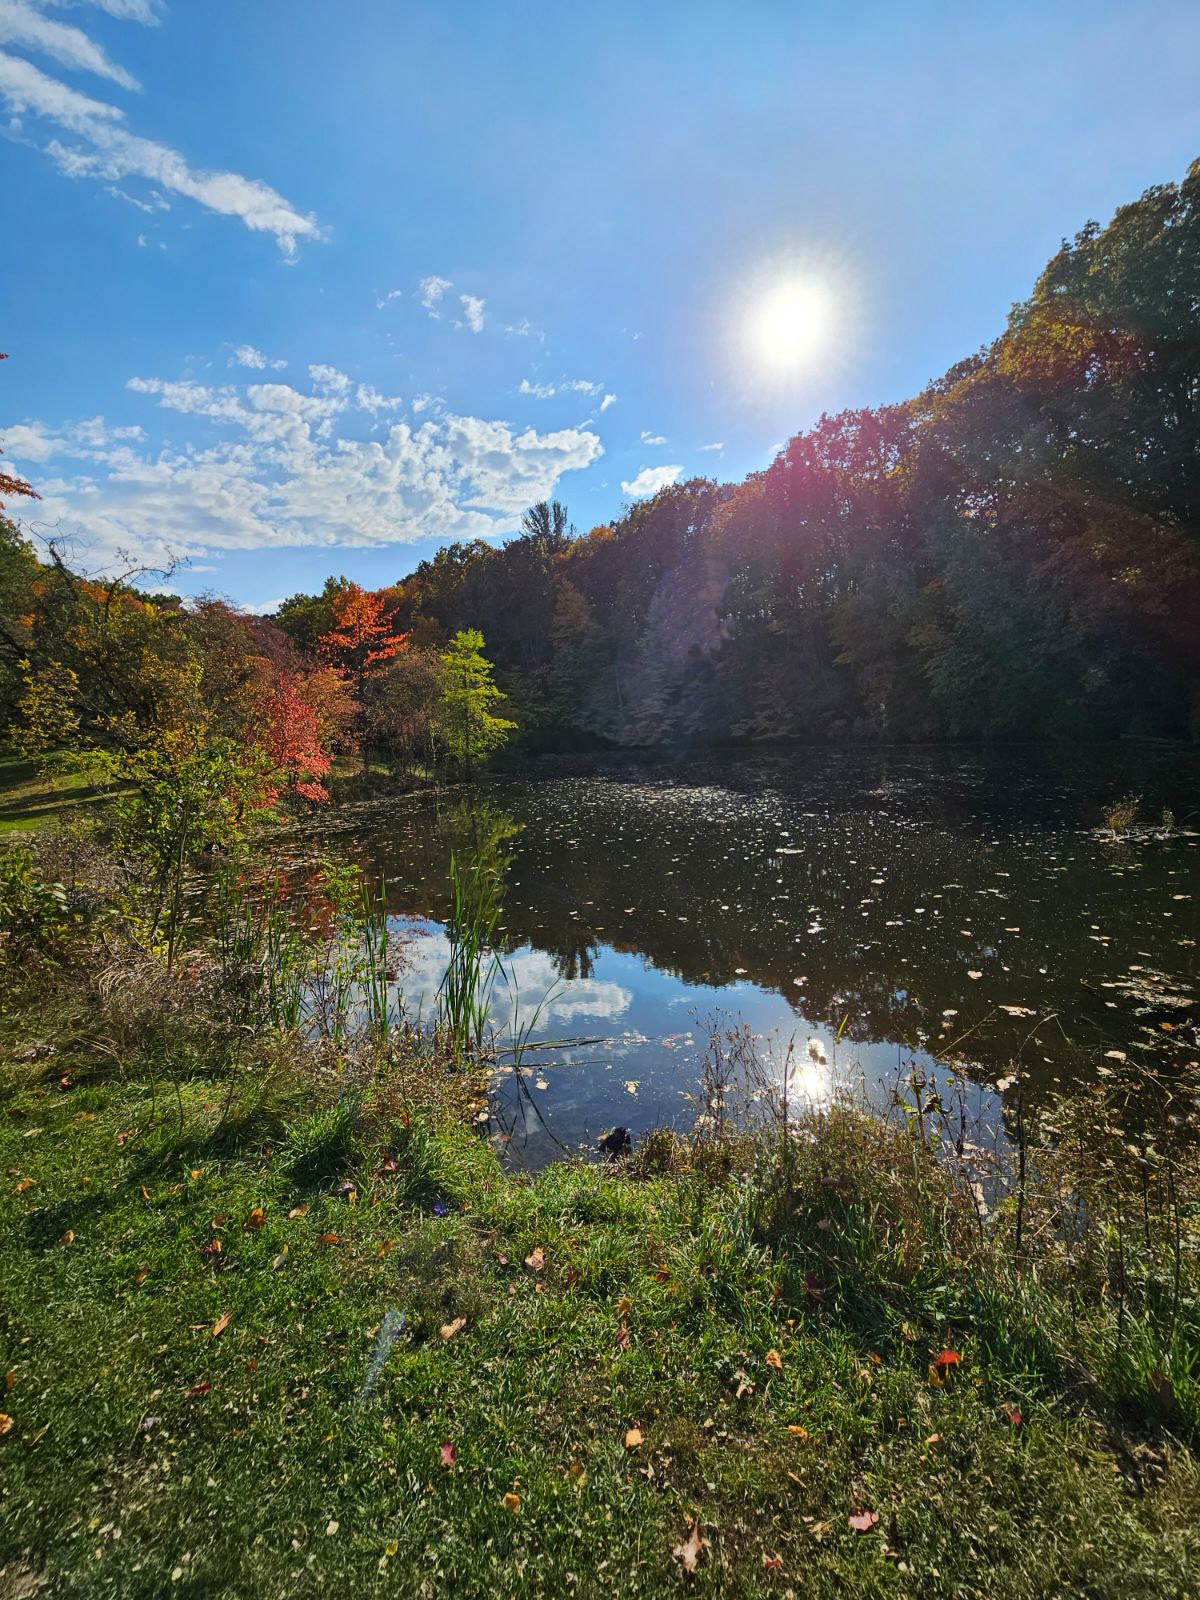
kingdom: Plantae
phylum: Tracheophyta
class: Magnoliopsida
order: Gentianales
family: Apocynaceae
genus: Asclepias
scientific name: Asclepias syriaca
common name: Common milkweed
